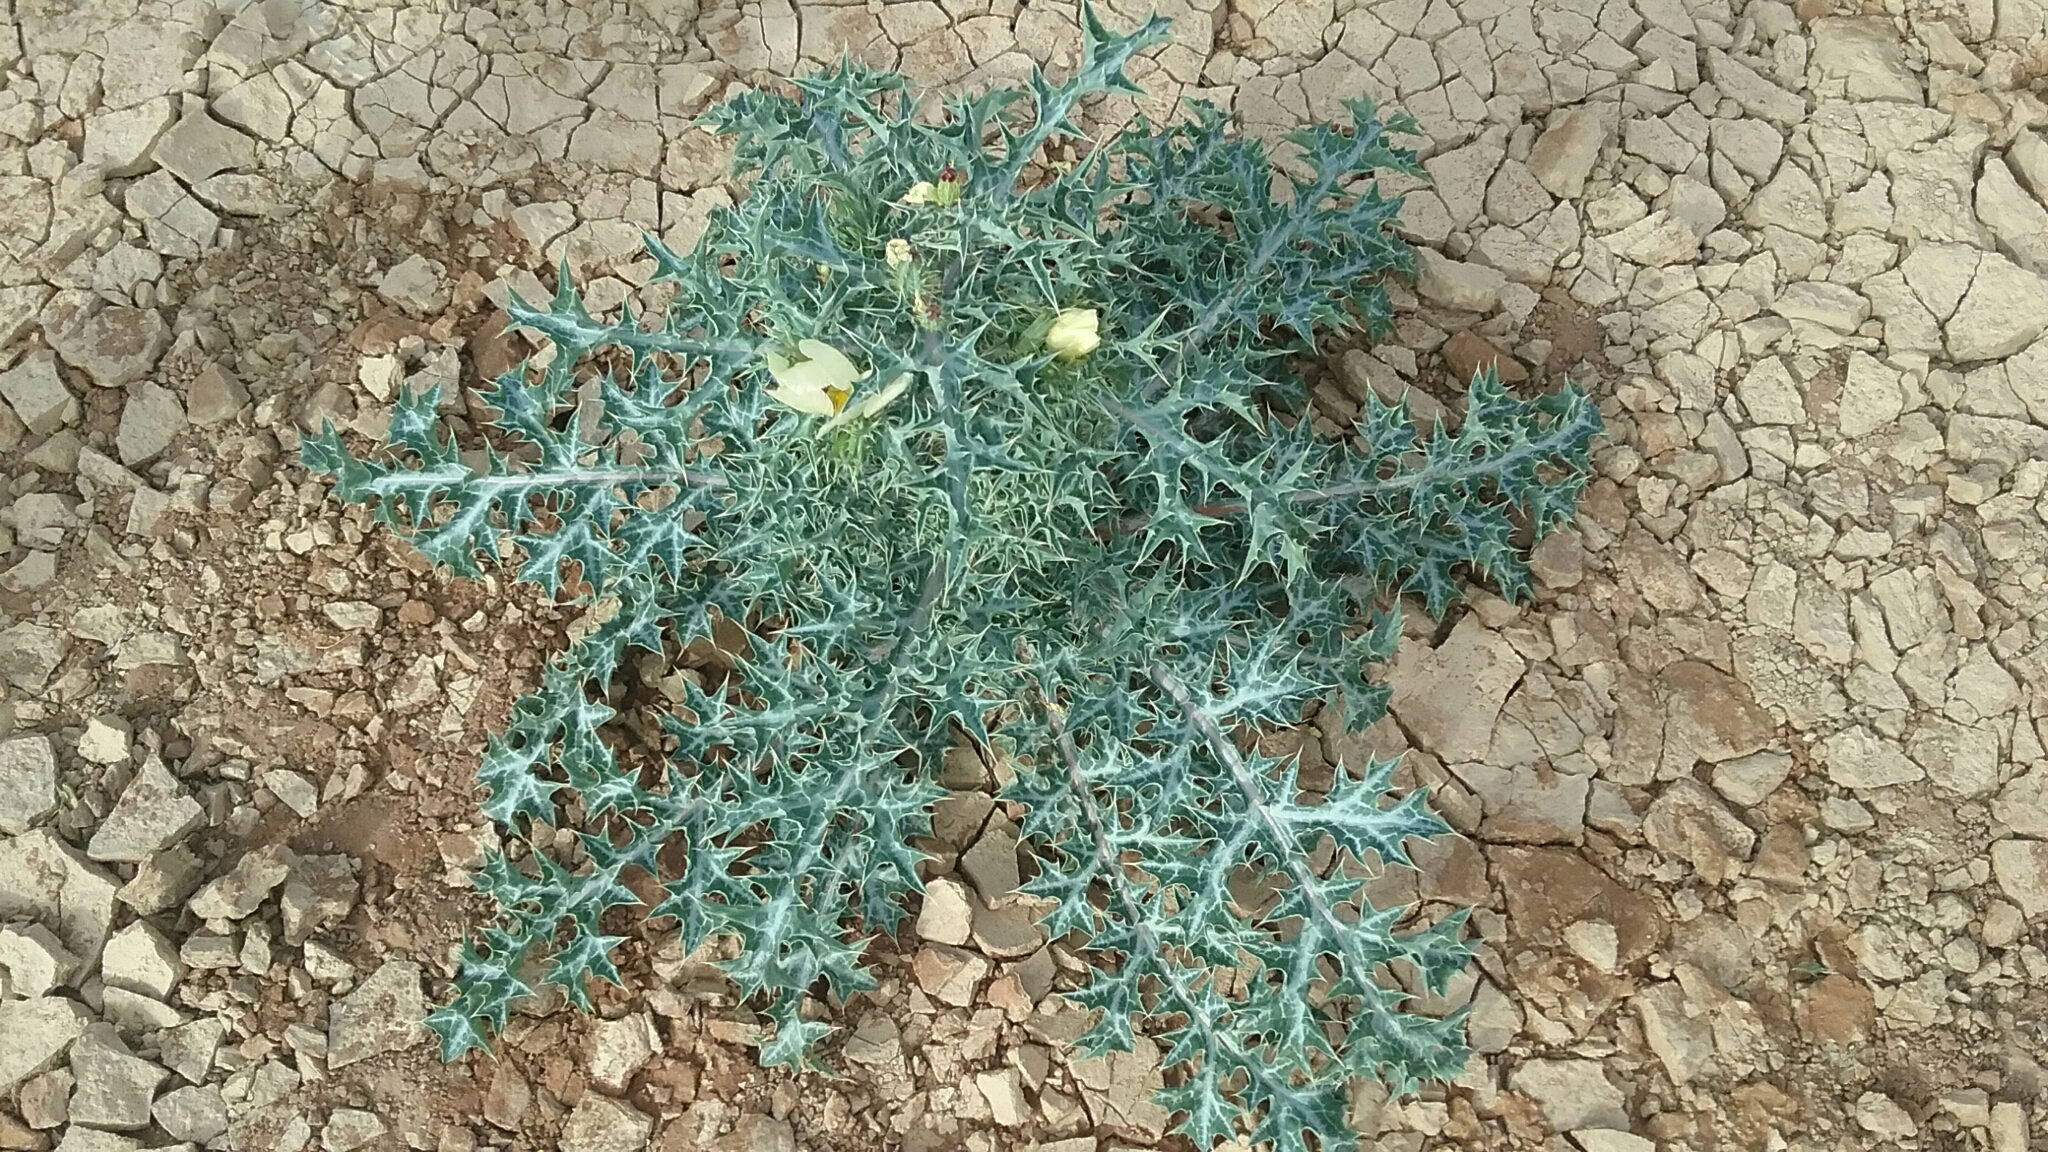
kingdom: Plantae
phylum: Tracheophyta
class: Magnoliopsida
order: Ranunculales
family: Papaveraceae
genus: Argemone
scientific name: Argemone ochroleuca
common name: White-flower mexican-poppy
